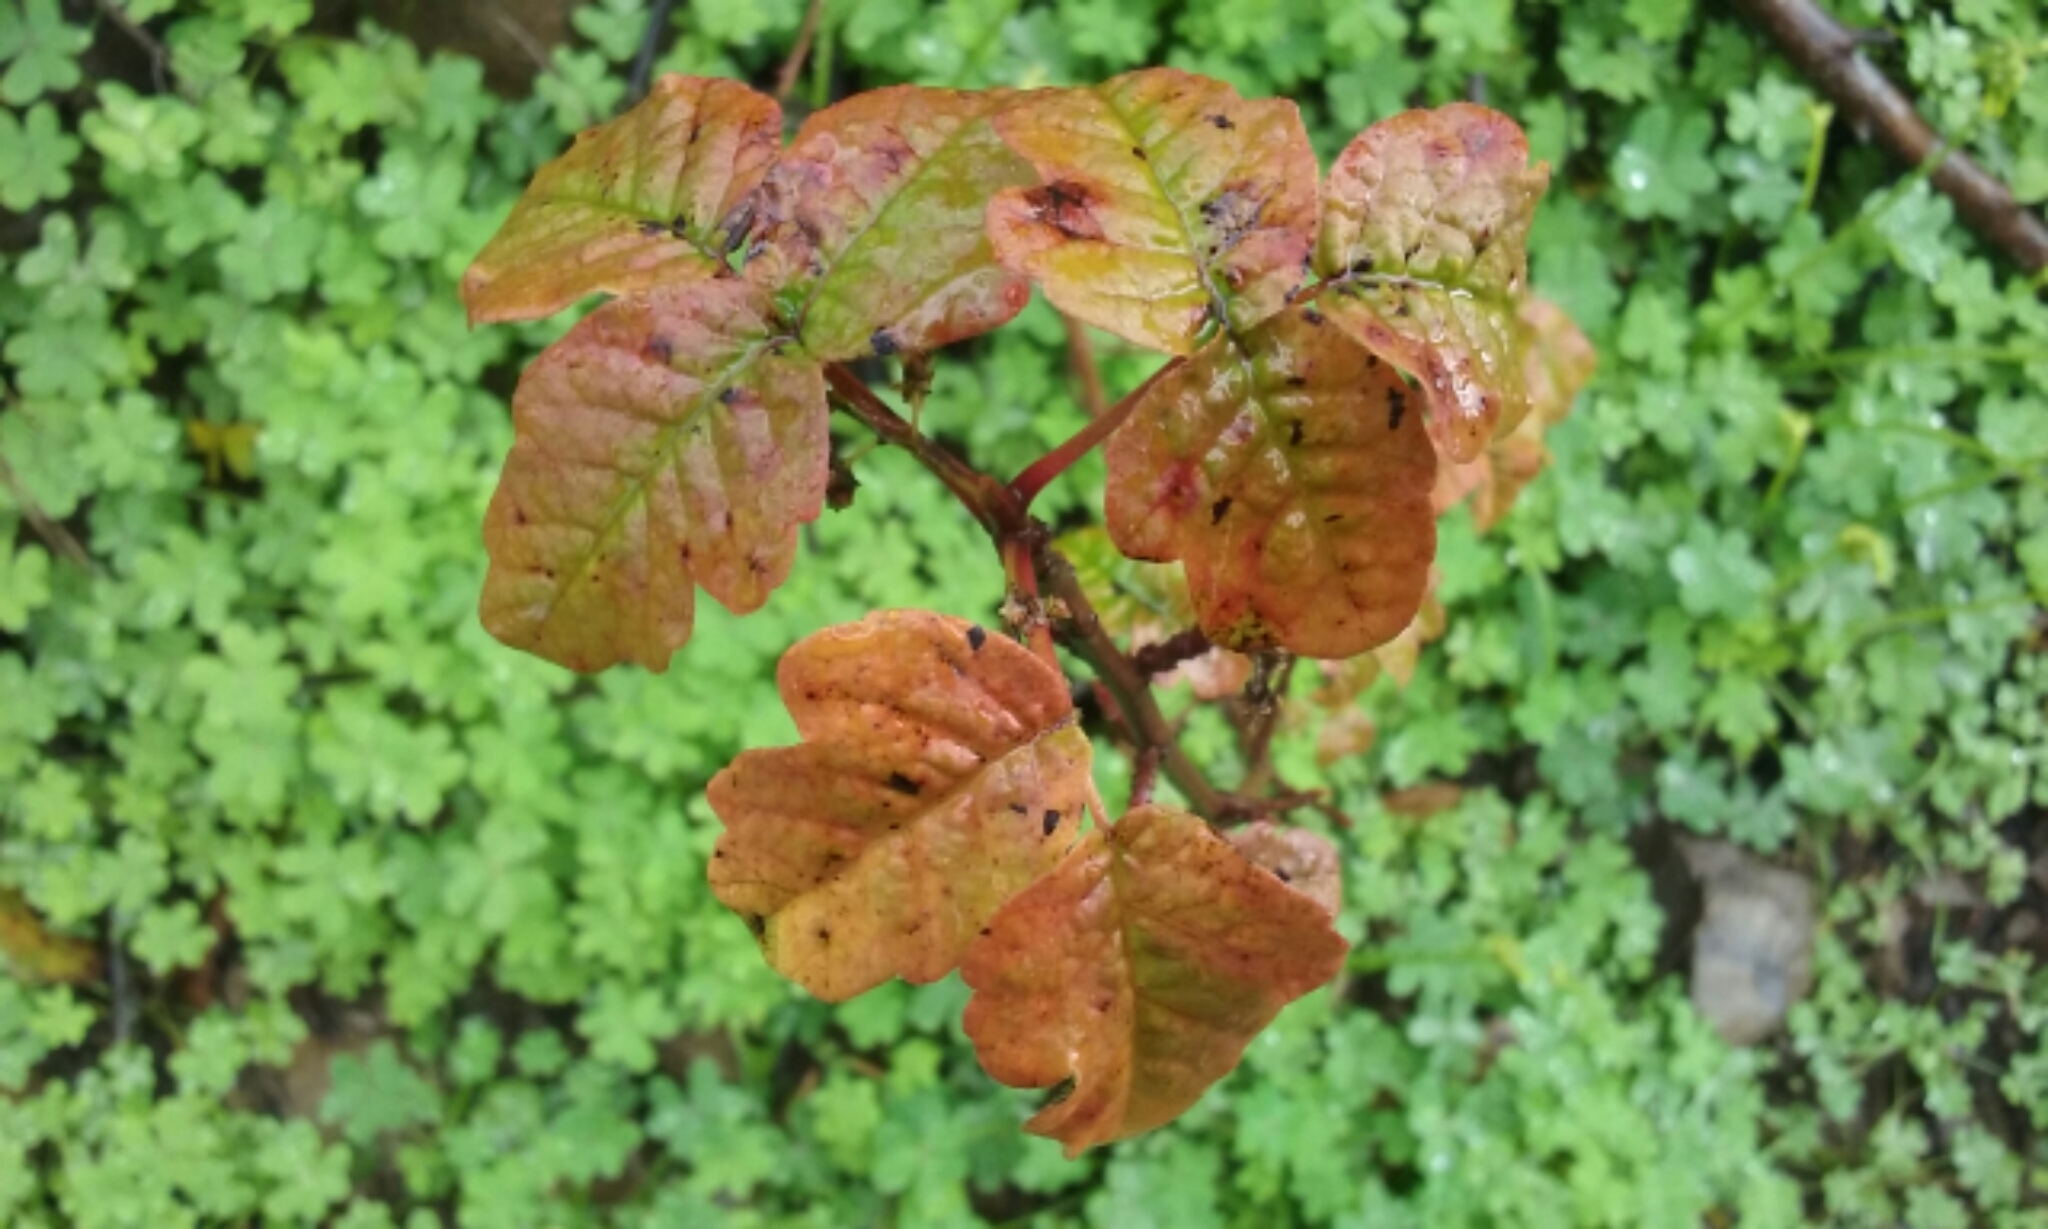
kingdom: Plantae
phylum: Tracheophyta
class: Magnoliopsida
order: Sapindales
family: Anacardiaceae
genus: Toxicodendron
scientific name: Toxicodendron diversilobum
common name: Pacific poison-oak
